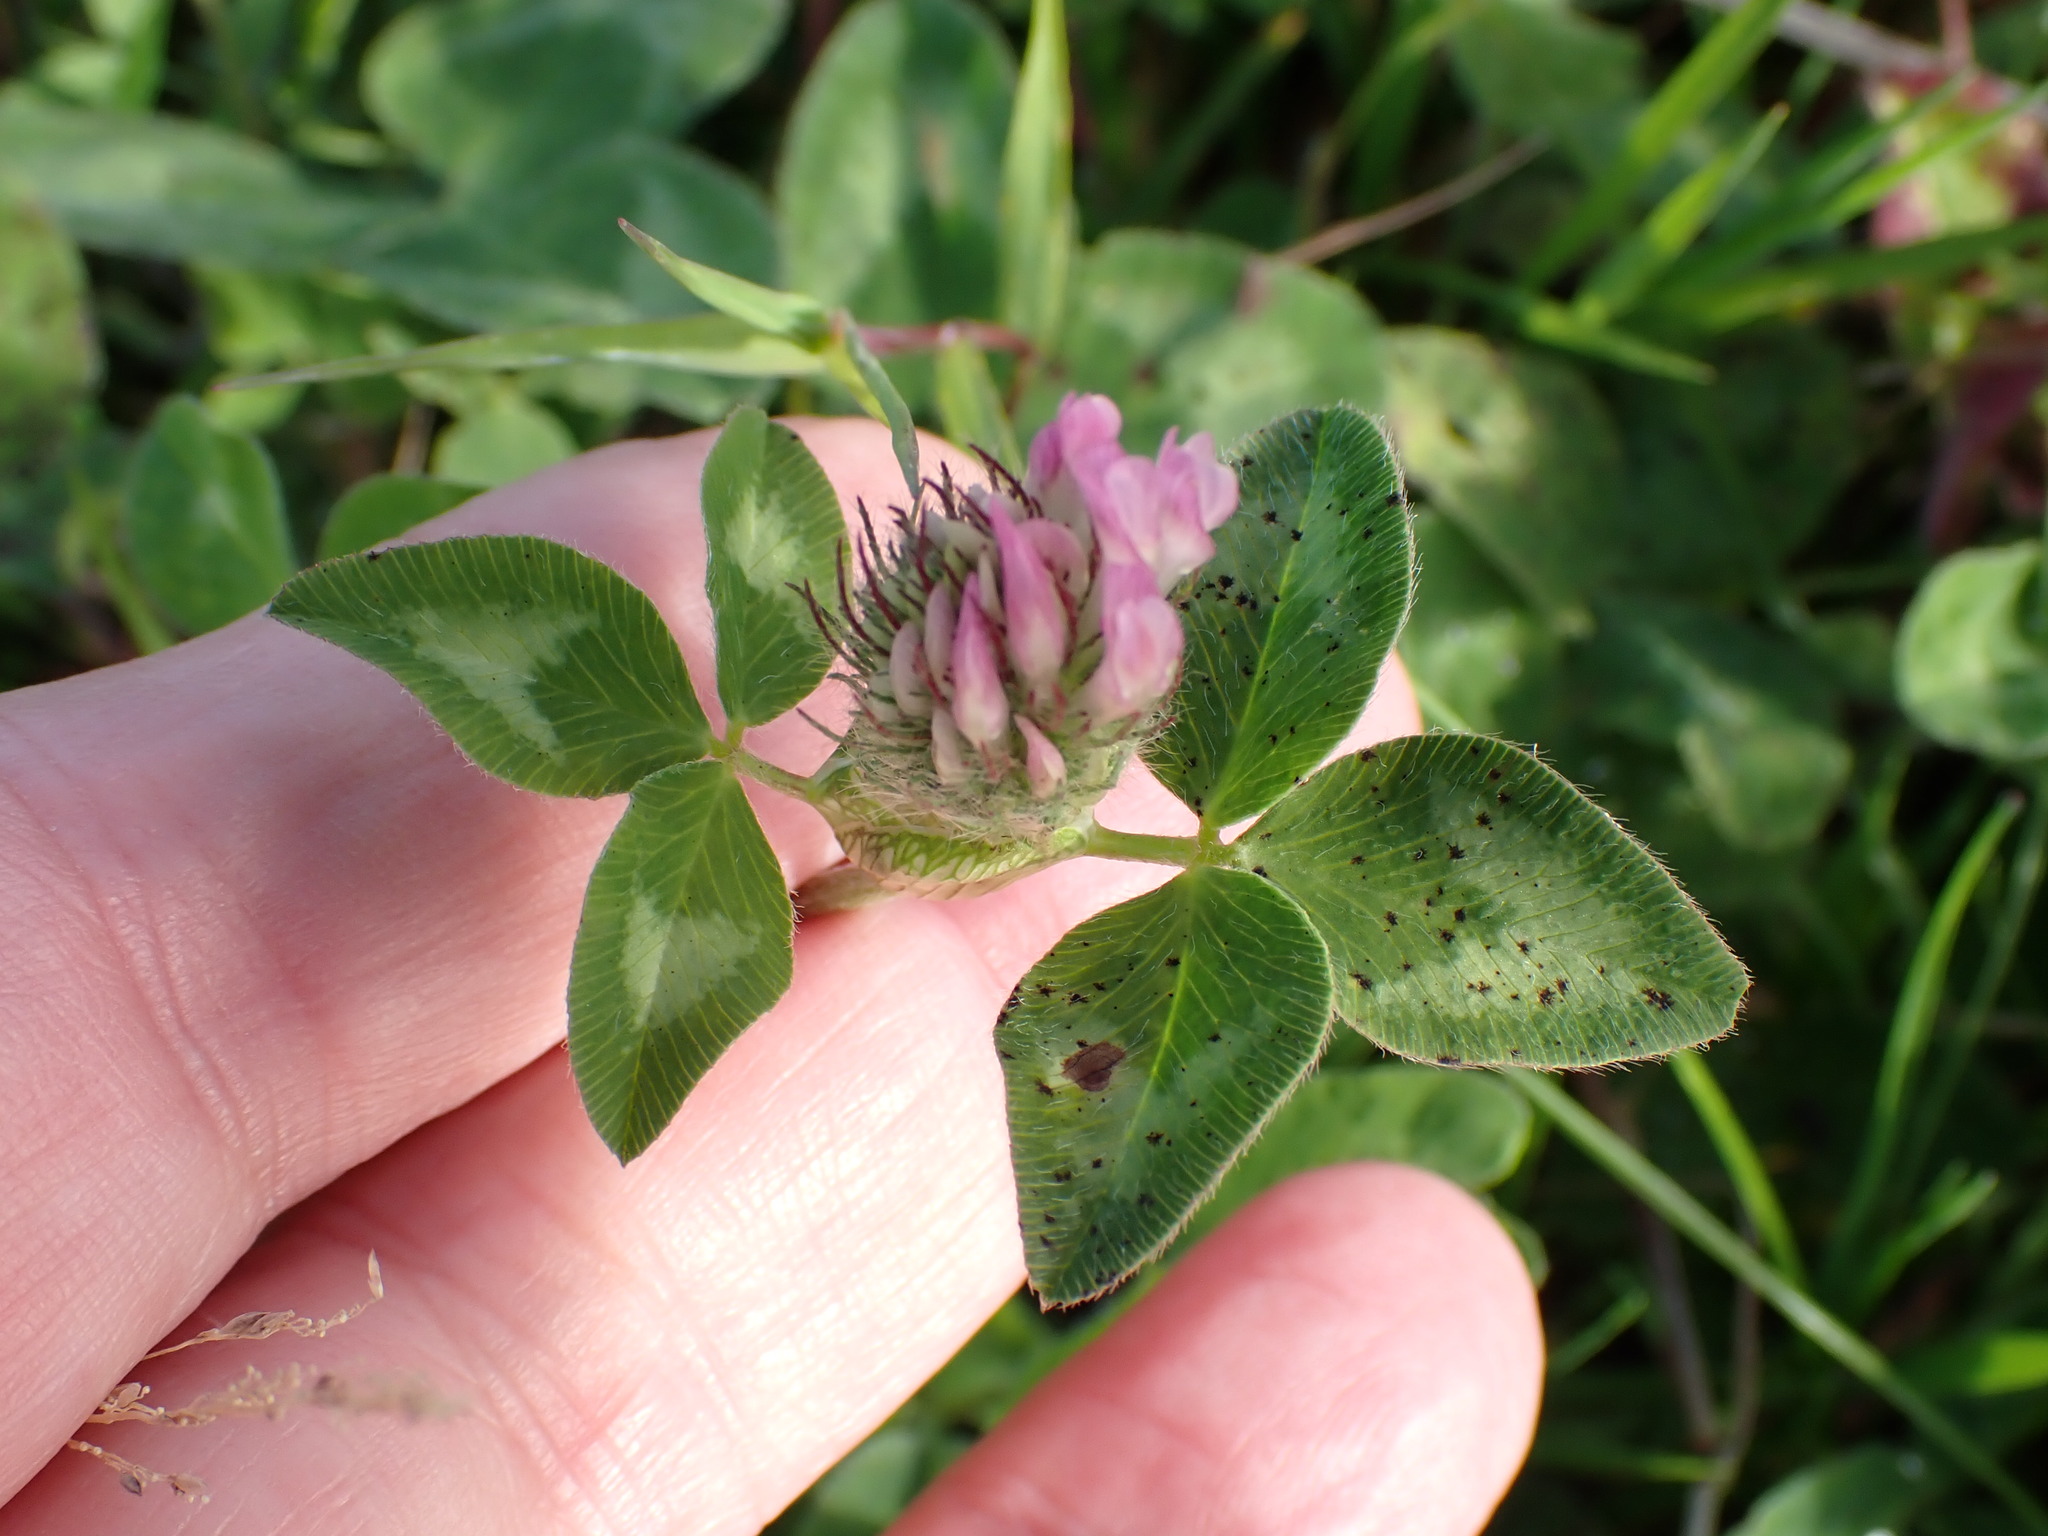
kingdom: Plantae
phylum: Tracheophyta
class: Magnoliopsida
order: Fabales
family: Fabaceae
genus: Trifolium
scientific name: Trifolium pratense
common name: Red clover
